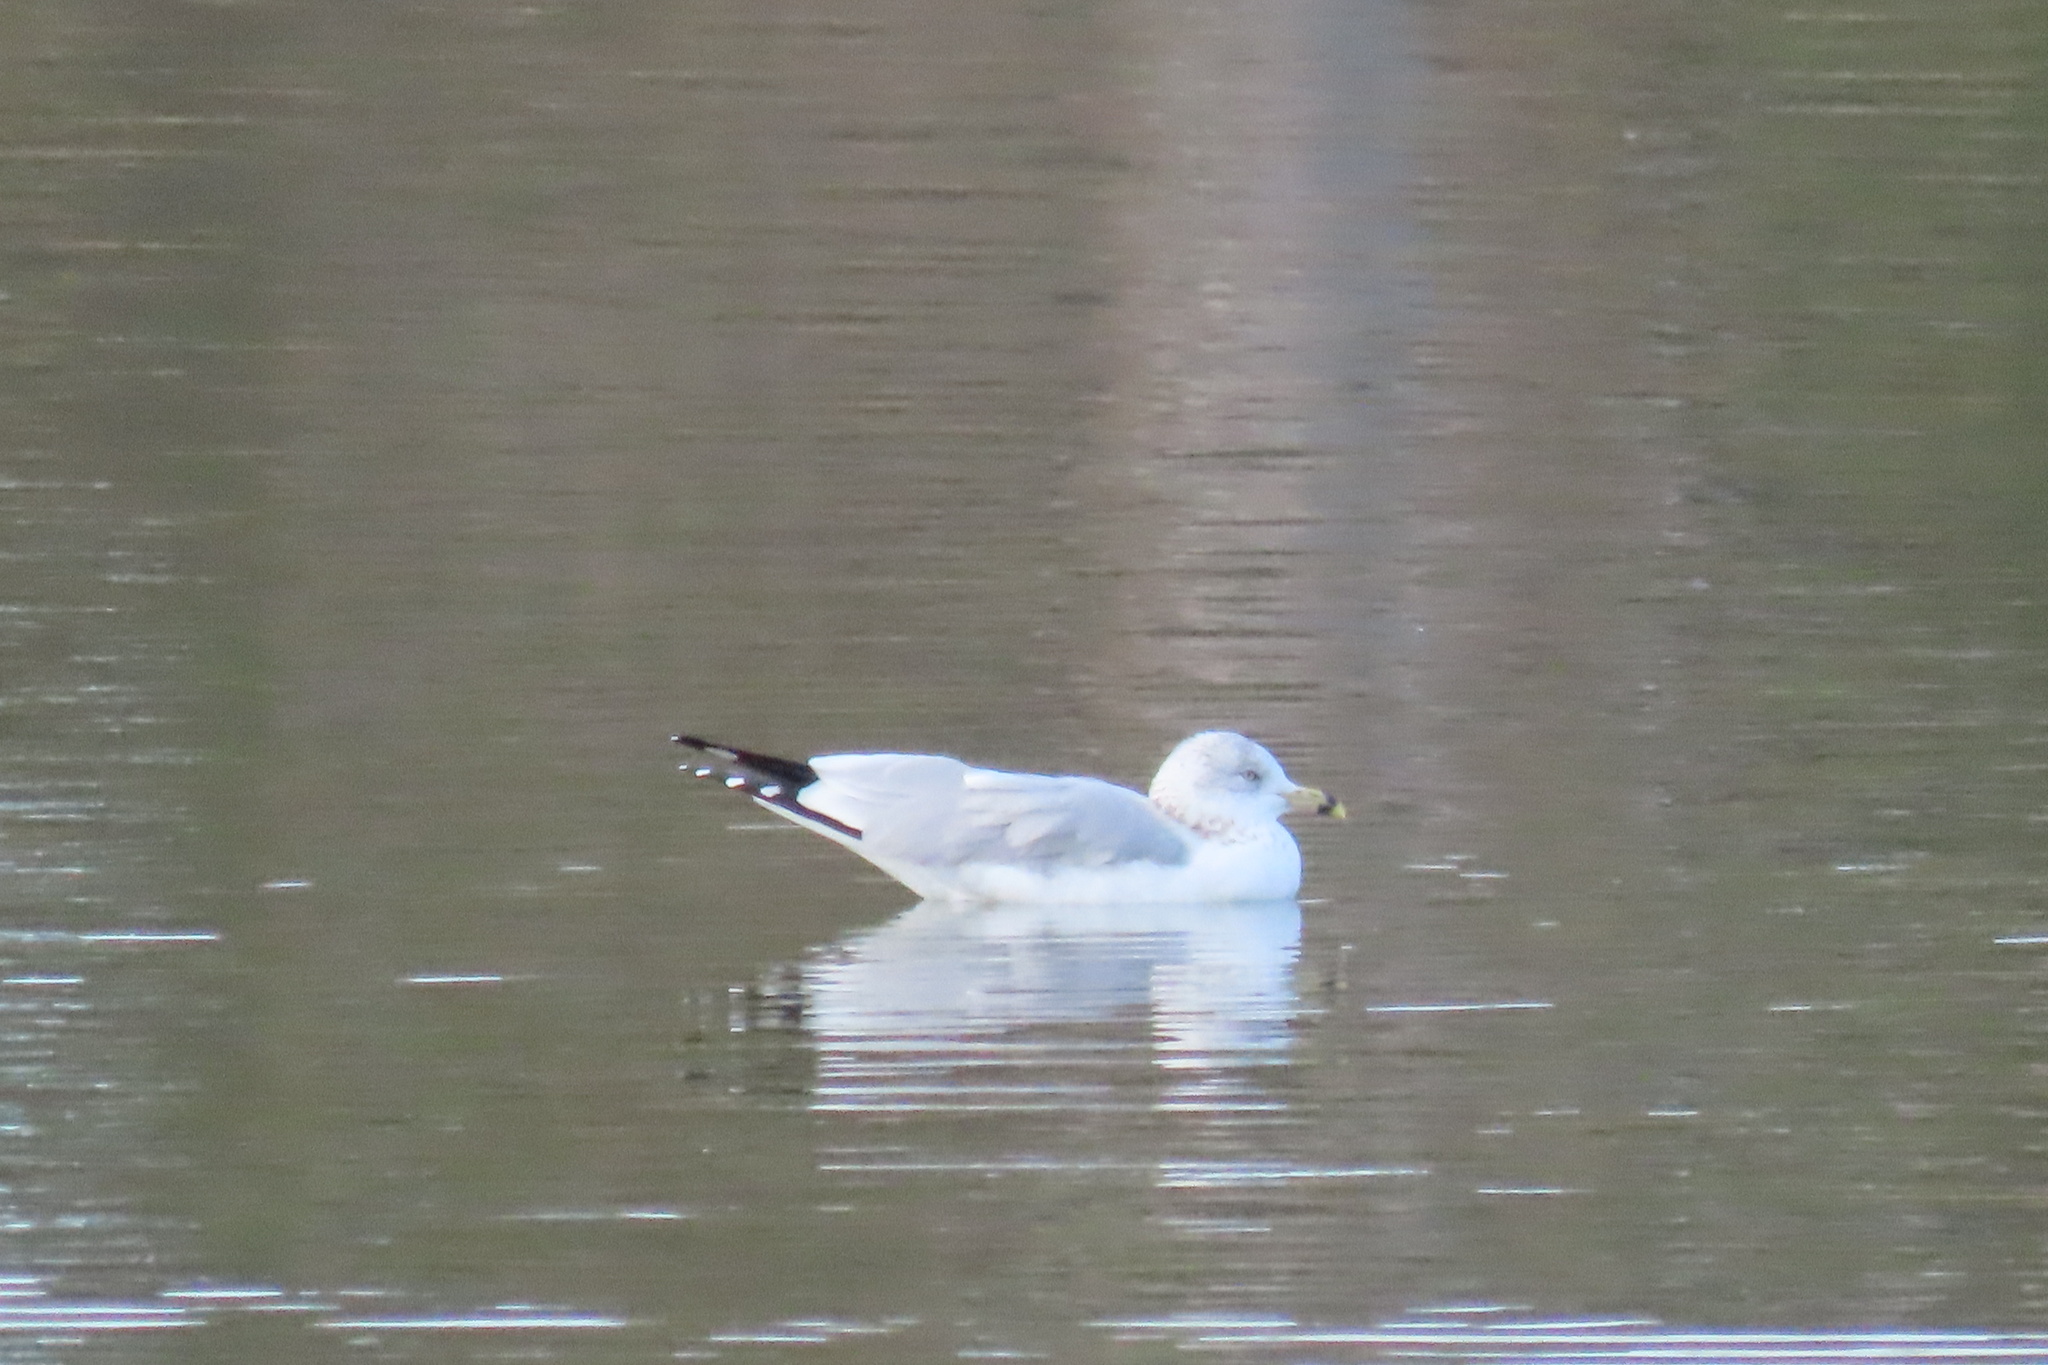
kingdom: Animalia
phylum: Chordata
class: Aves
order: Charadriiformes
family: Laridae
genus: Larus
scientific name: Larus delawarensis
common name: Ring-billed gull
